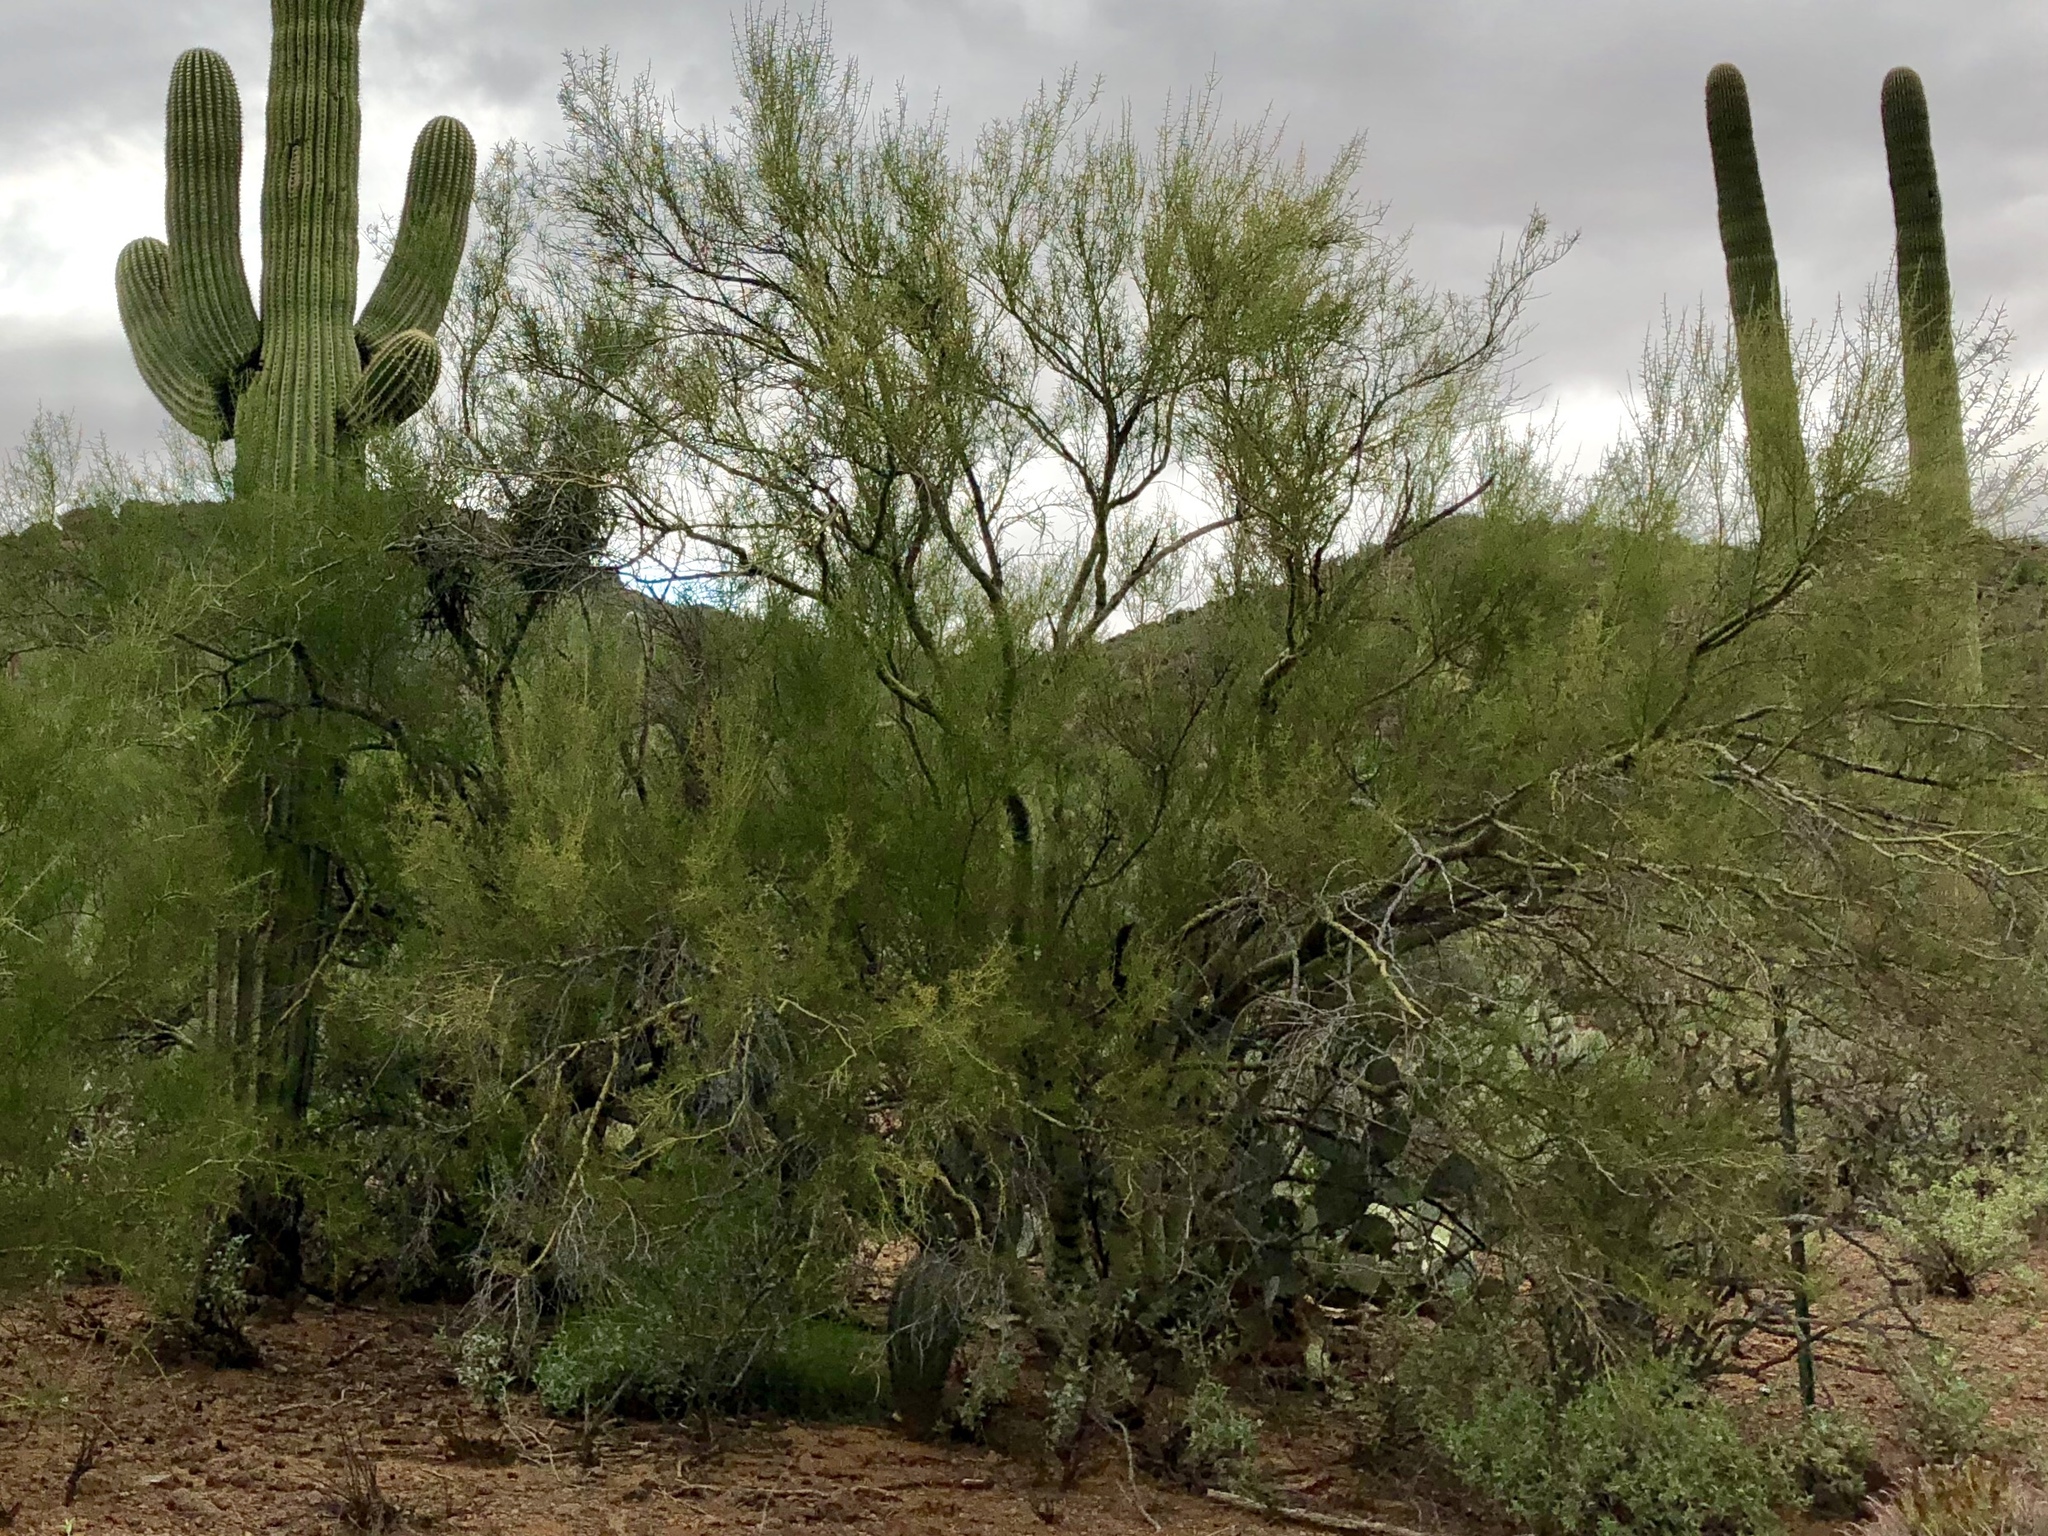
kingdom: Plantae
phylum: Tracheophyta
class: Magnoliopsida
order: Fabales
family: Fabaceae
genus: Parkinsonia
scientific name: Parkinsonia microphylla
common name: Yellow paloverde
